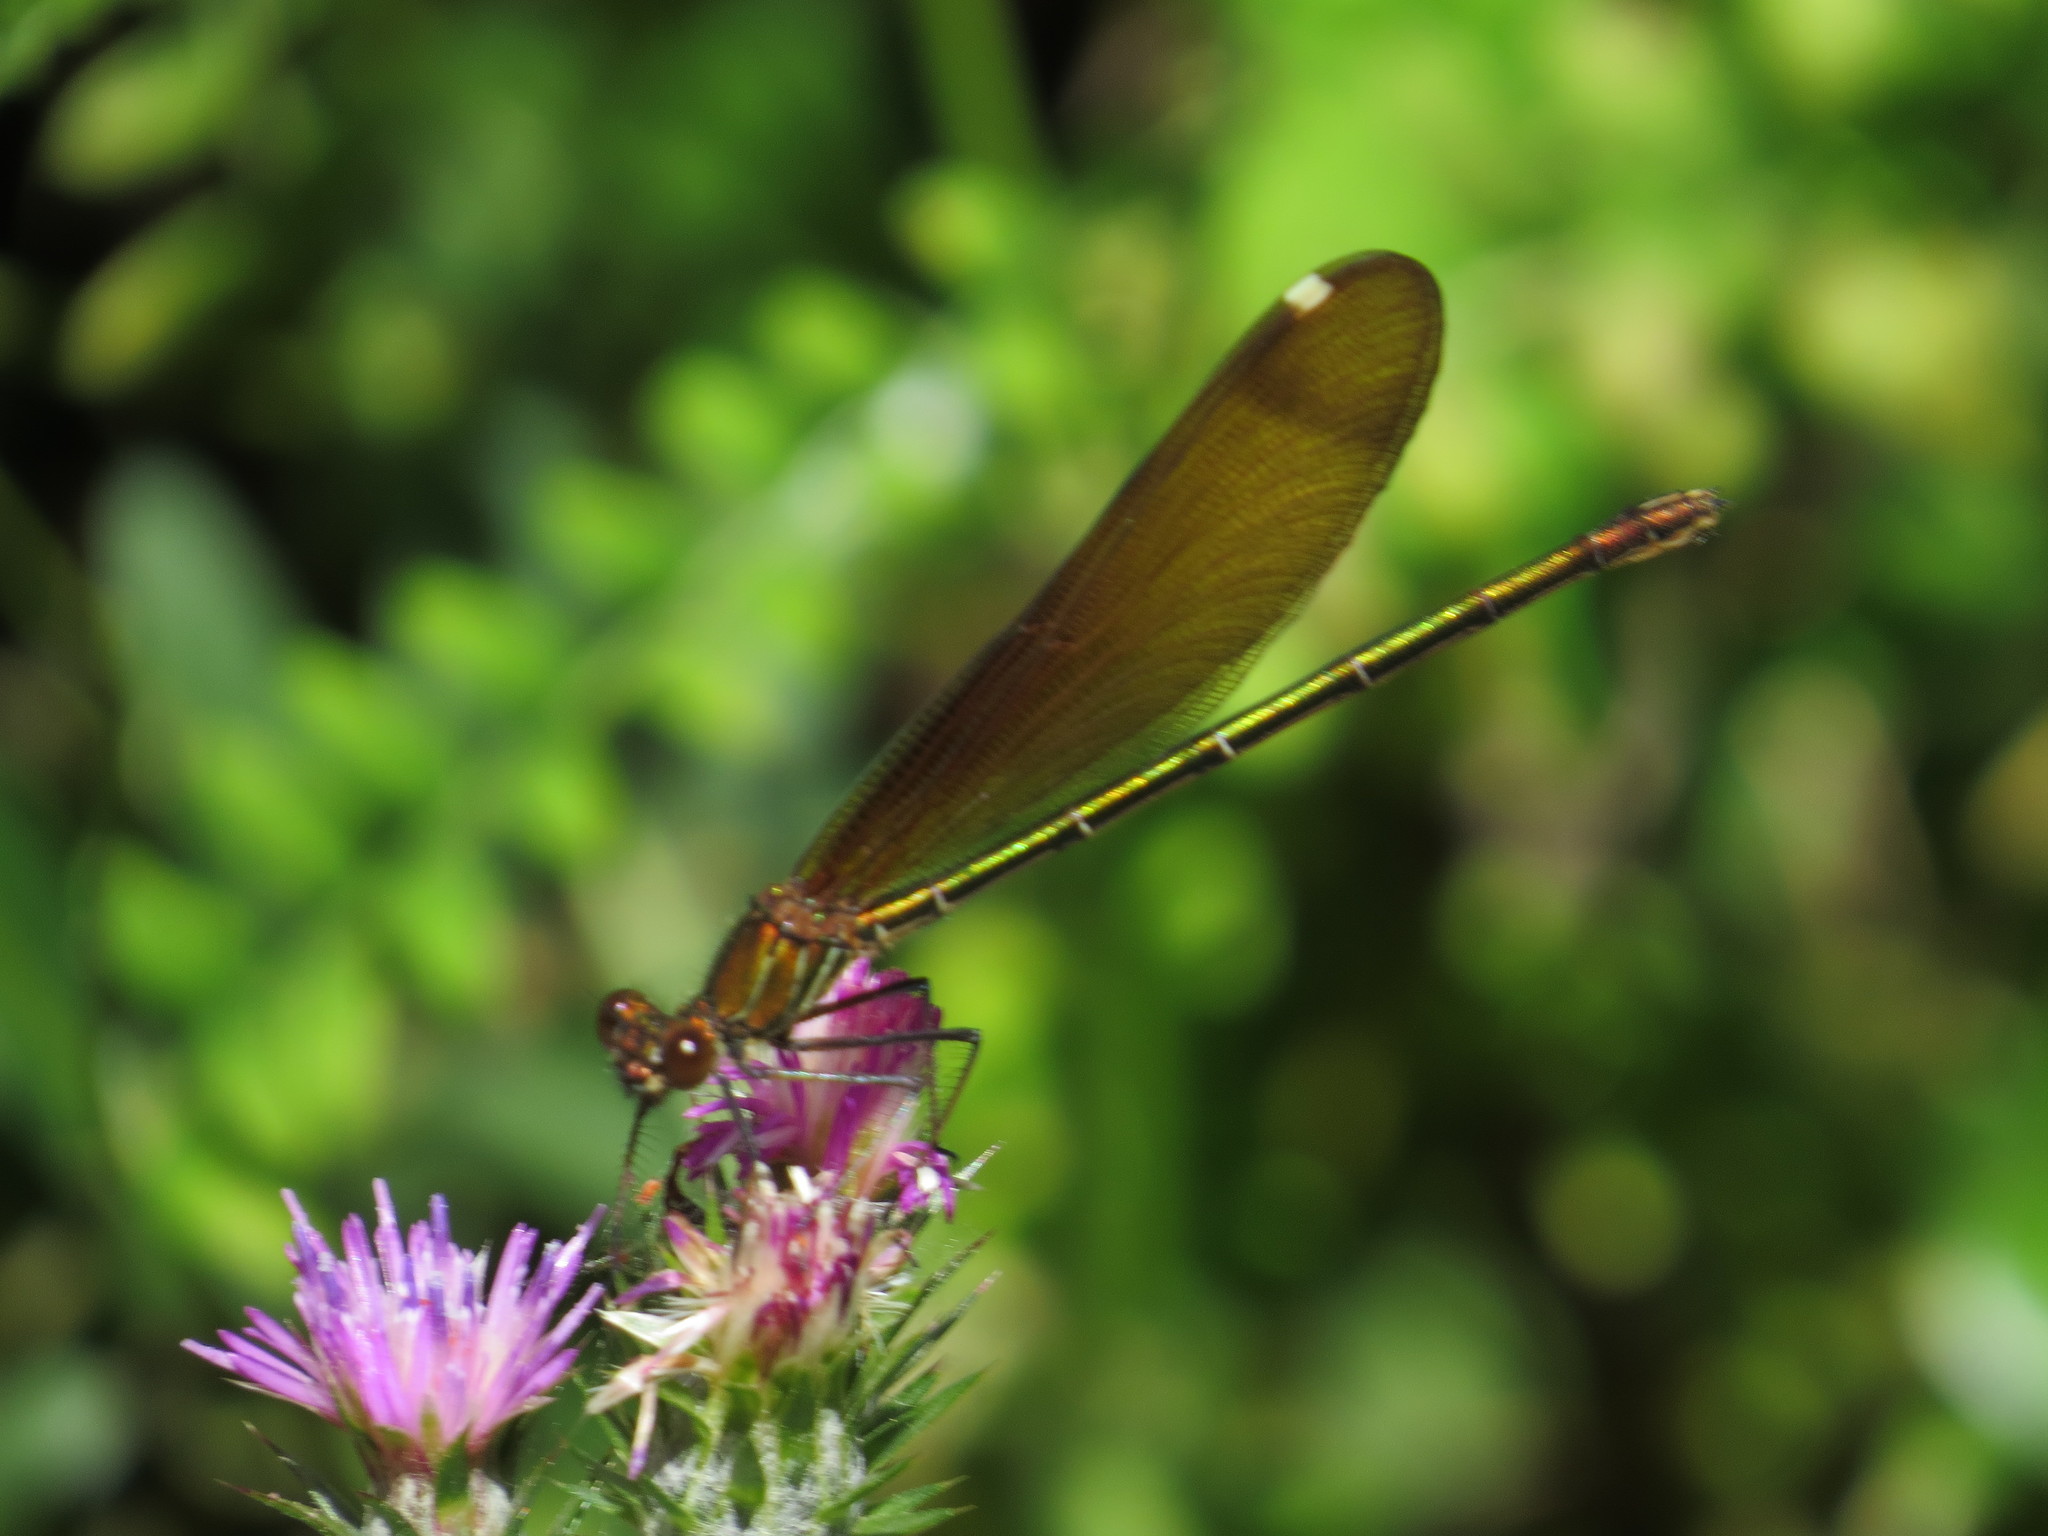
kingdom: Animalia
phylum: Arthropoda
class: Insecta
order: Odonata
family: Calopterygidae
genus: Calopteryx
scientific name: Calopteryx haemorrhoidalis
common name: Copper demoiselle
